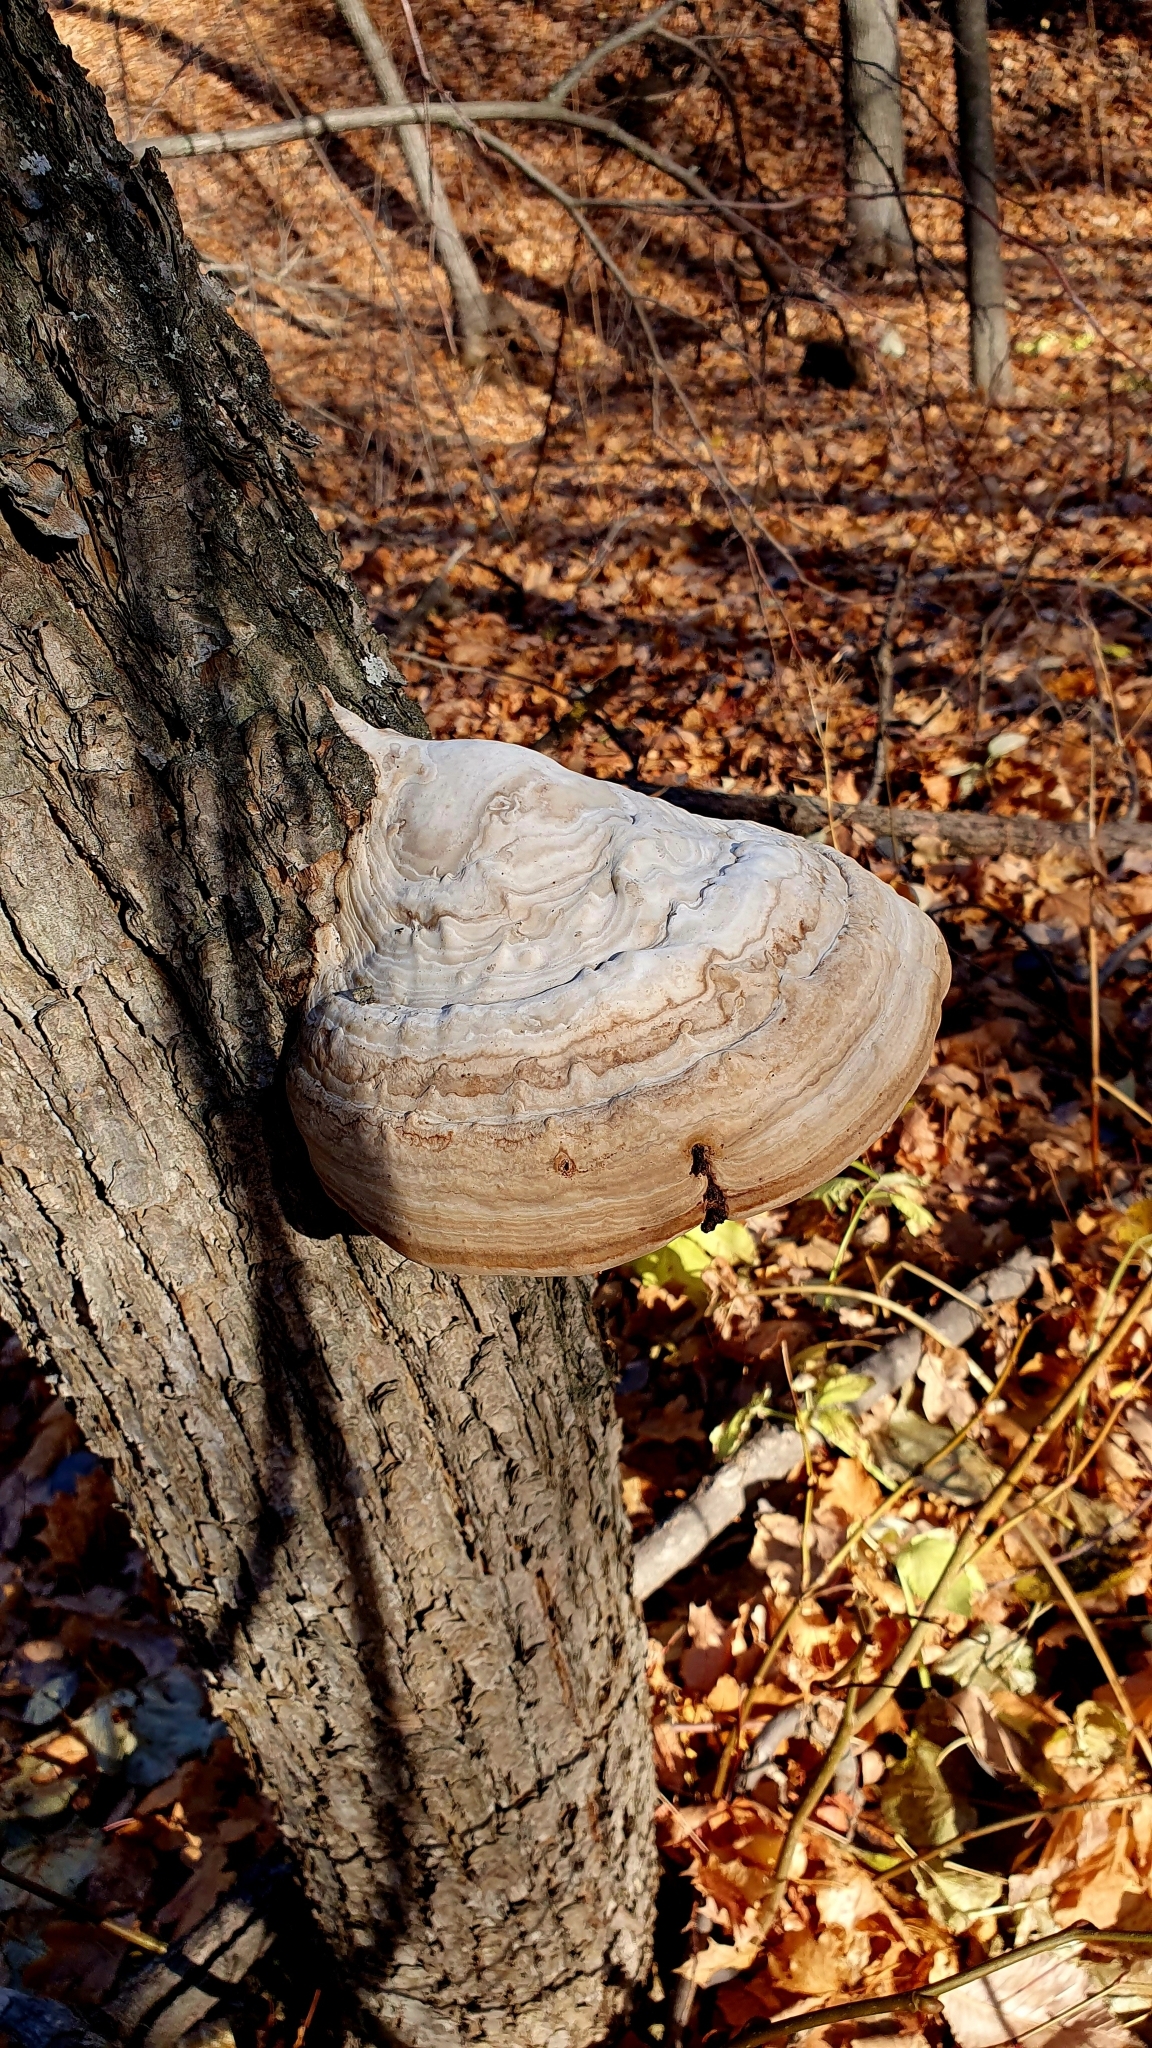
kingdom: Fungi
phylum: Basidiomycota
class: Agaricomycetes
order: Polyporales
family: Polyporaceae
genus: Fomes
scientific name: Fomes fomentarius
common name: Hoof fungus
